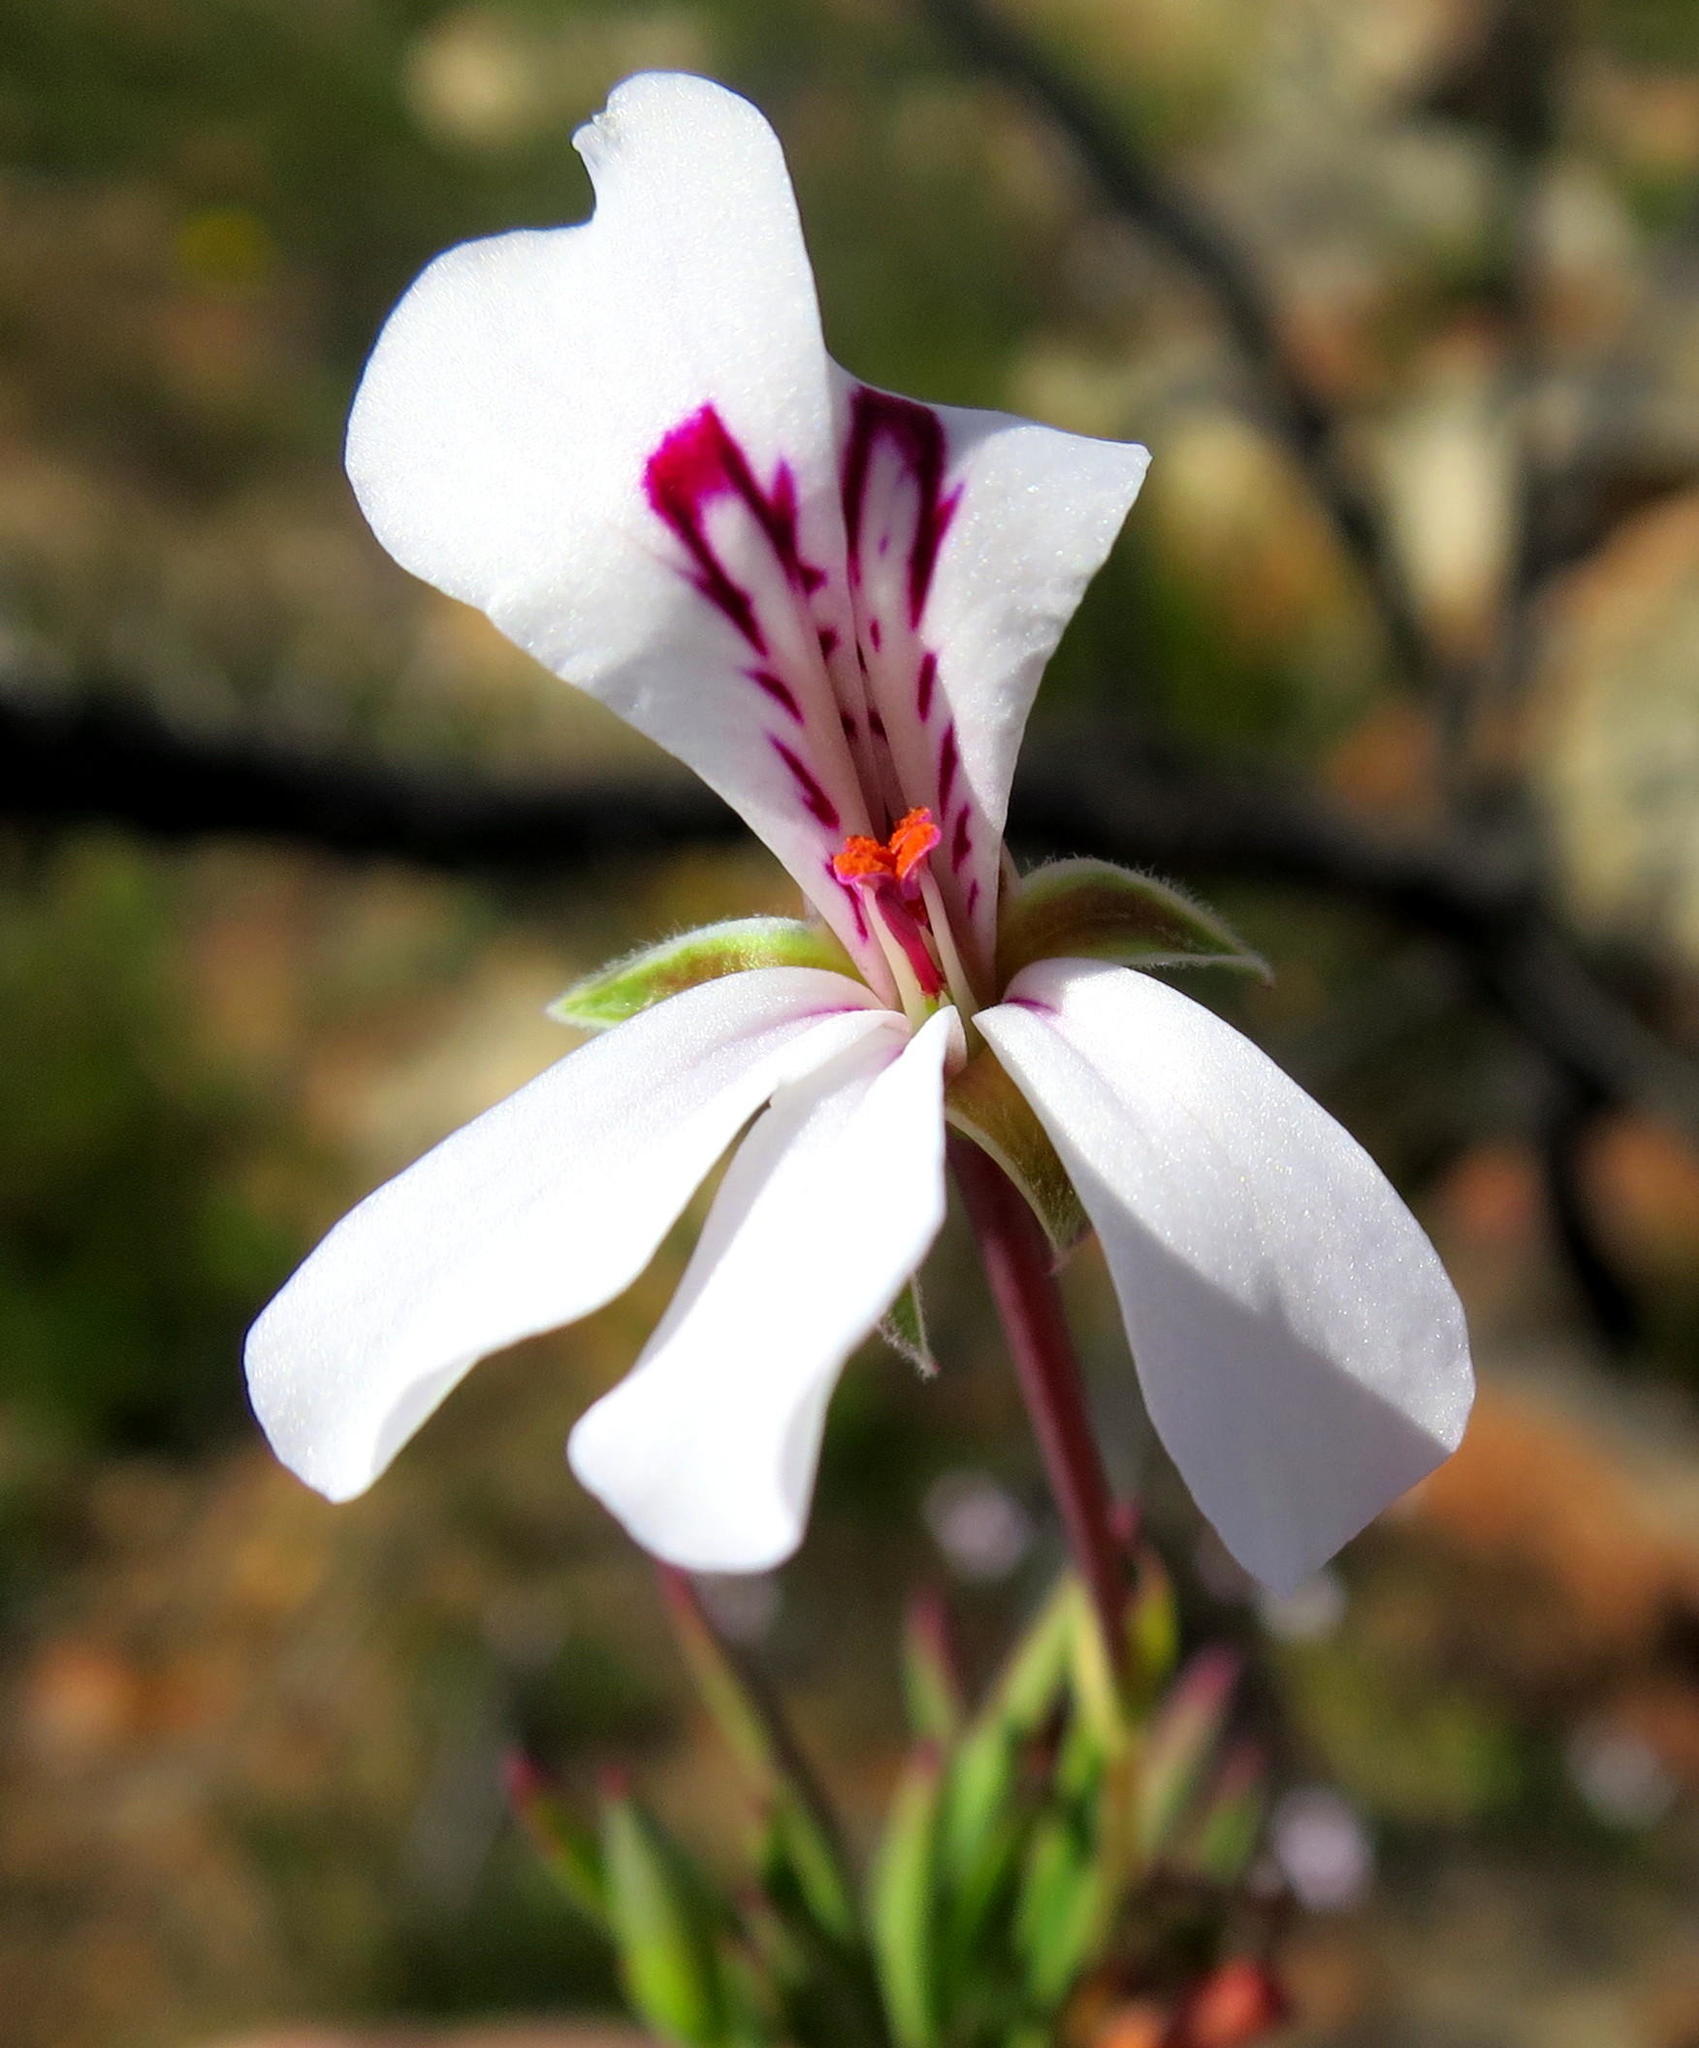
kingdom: Plantae
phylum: Tracheophyta
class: Magnoliopsida
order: Geraniales
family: Geraniaceae
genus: Pelargonium
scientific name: Pelargonium laevigatum
